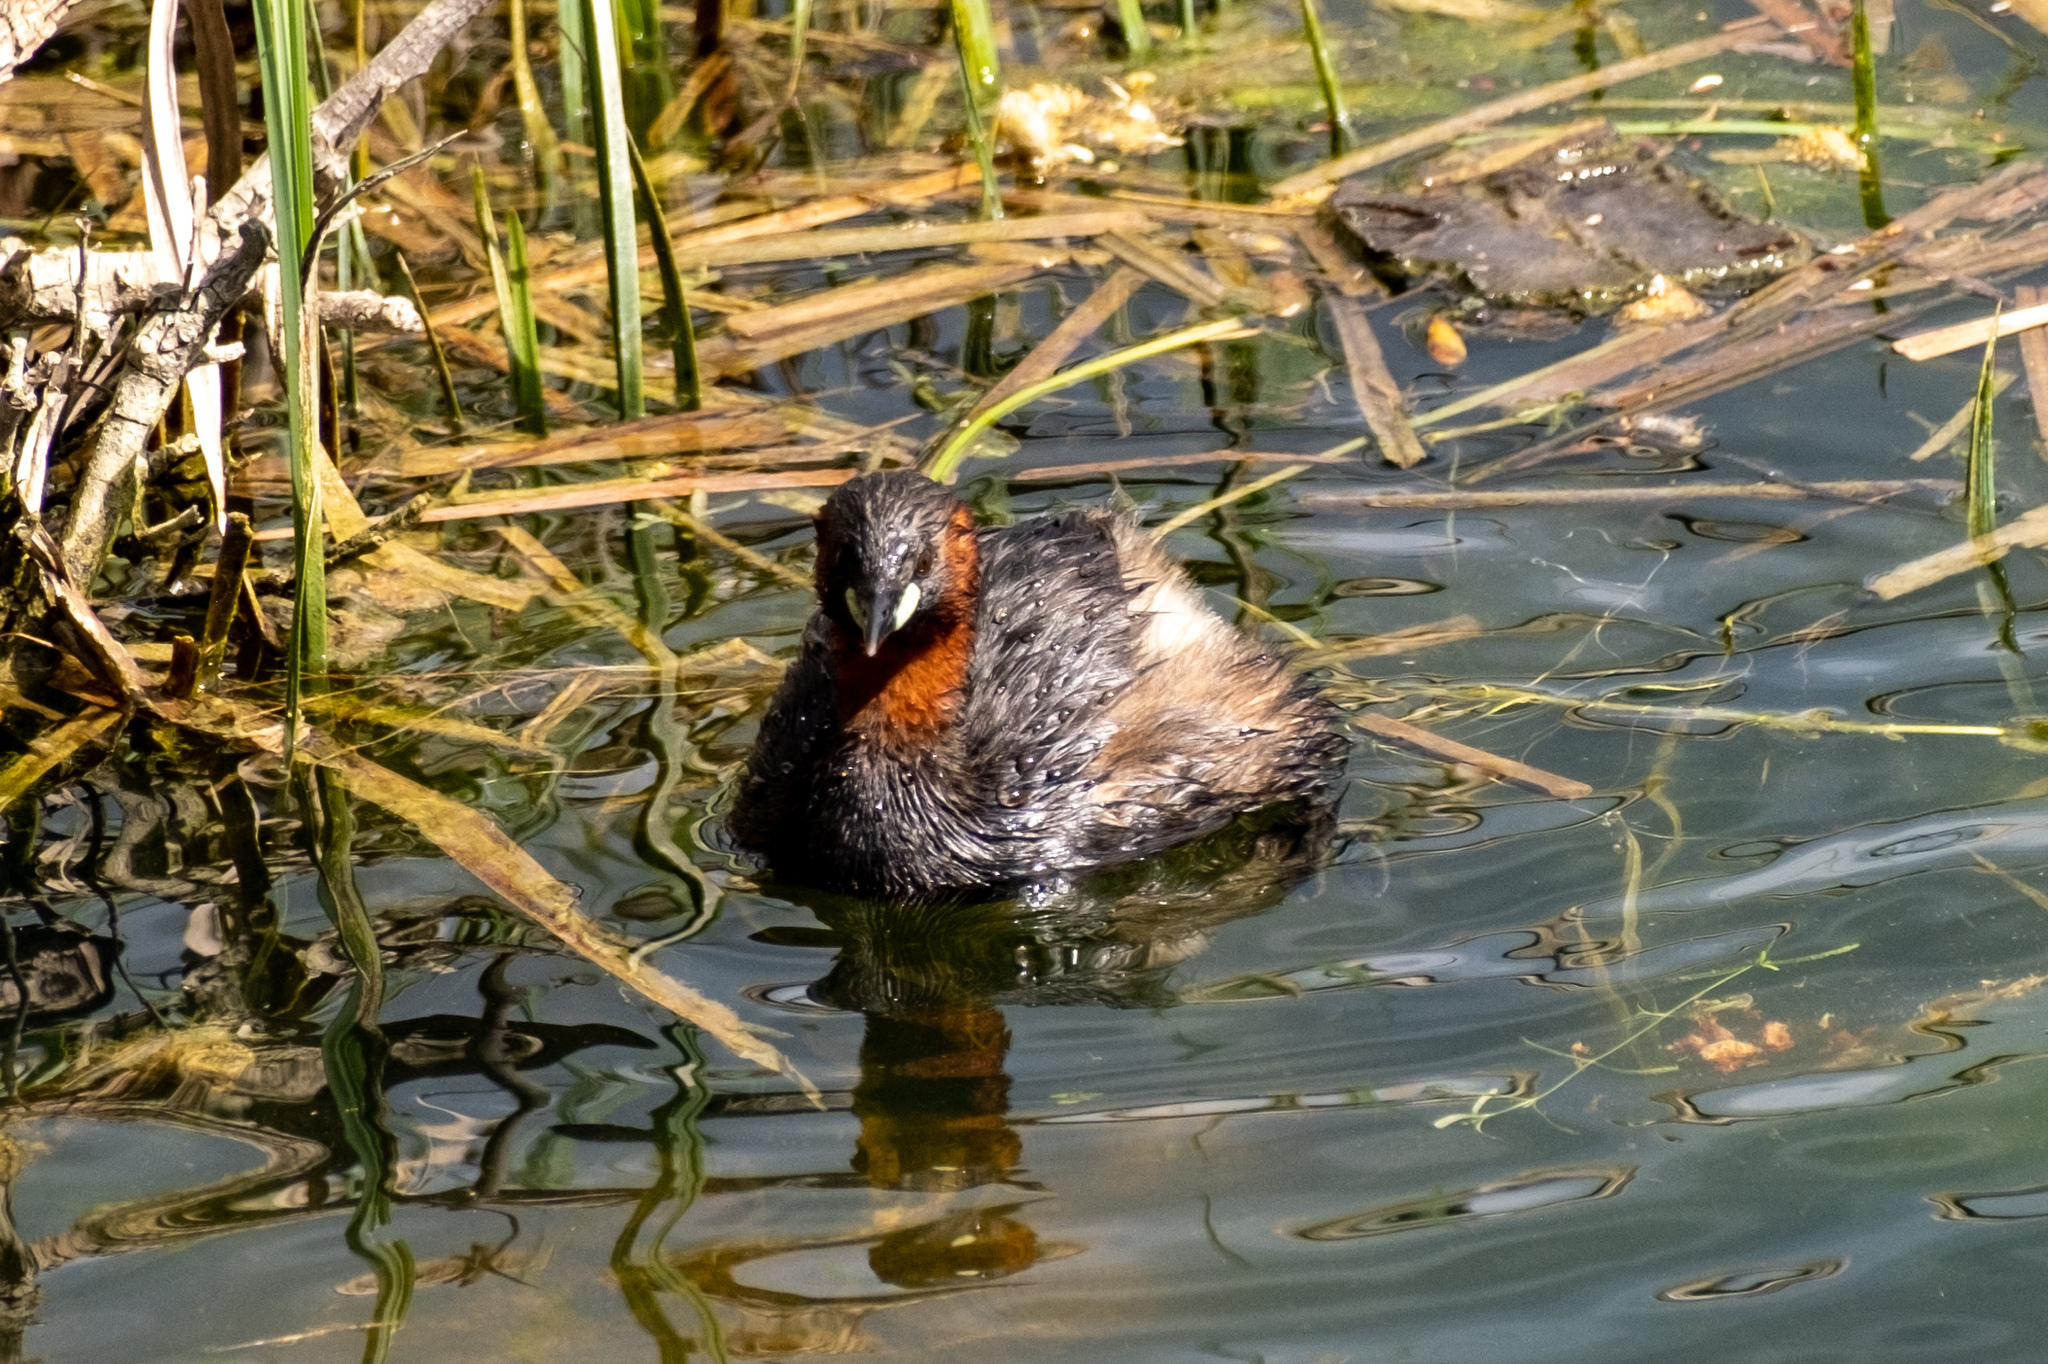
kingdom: Animalia
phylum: Chordata
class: Aves
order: Podicipediformes
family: Podicipedidae
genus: Tachybaptus
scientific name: Tachybaptus ruficollis
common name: Little grebe
